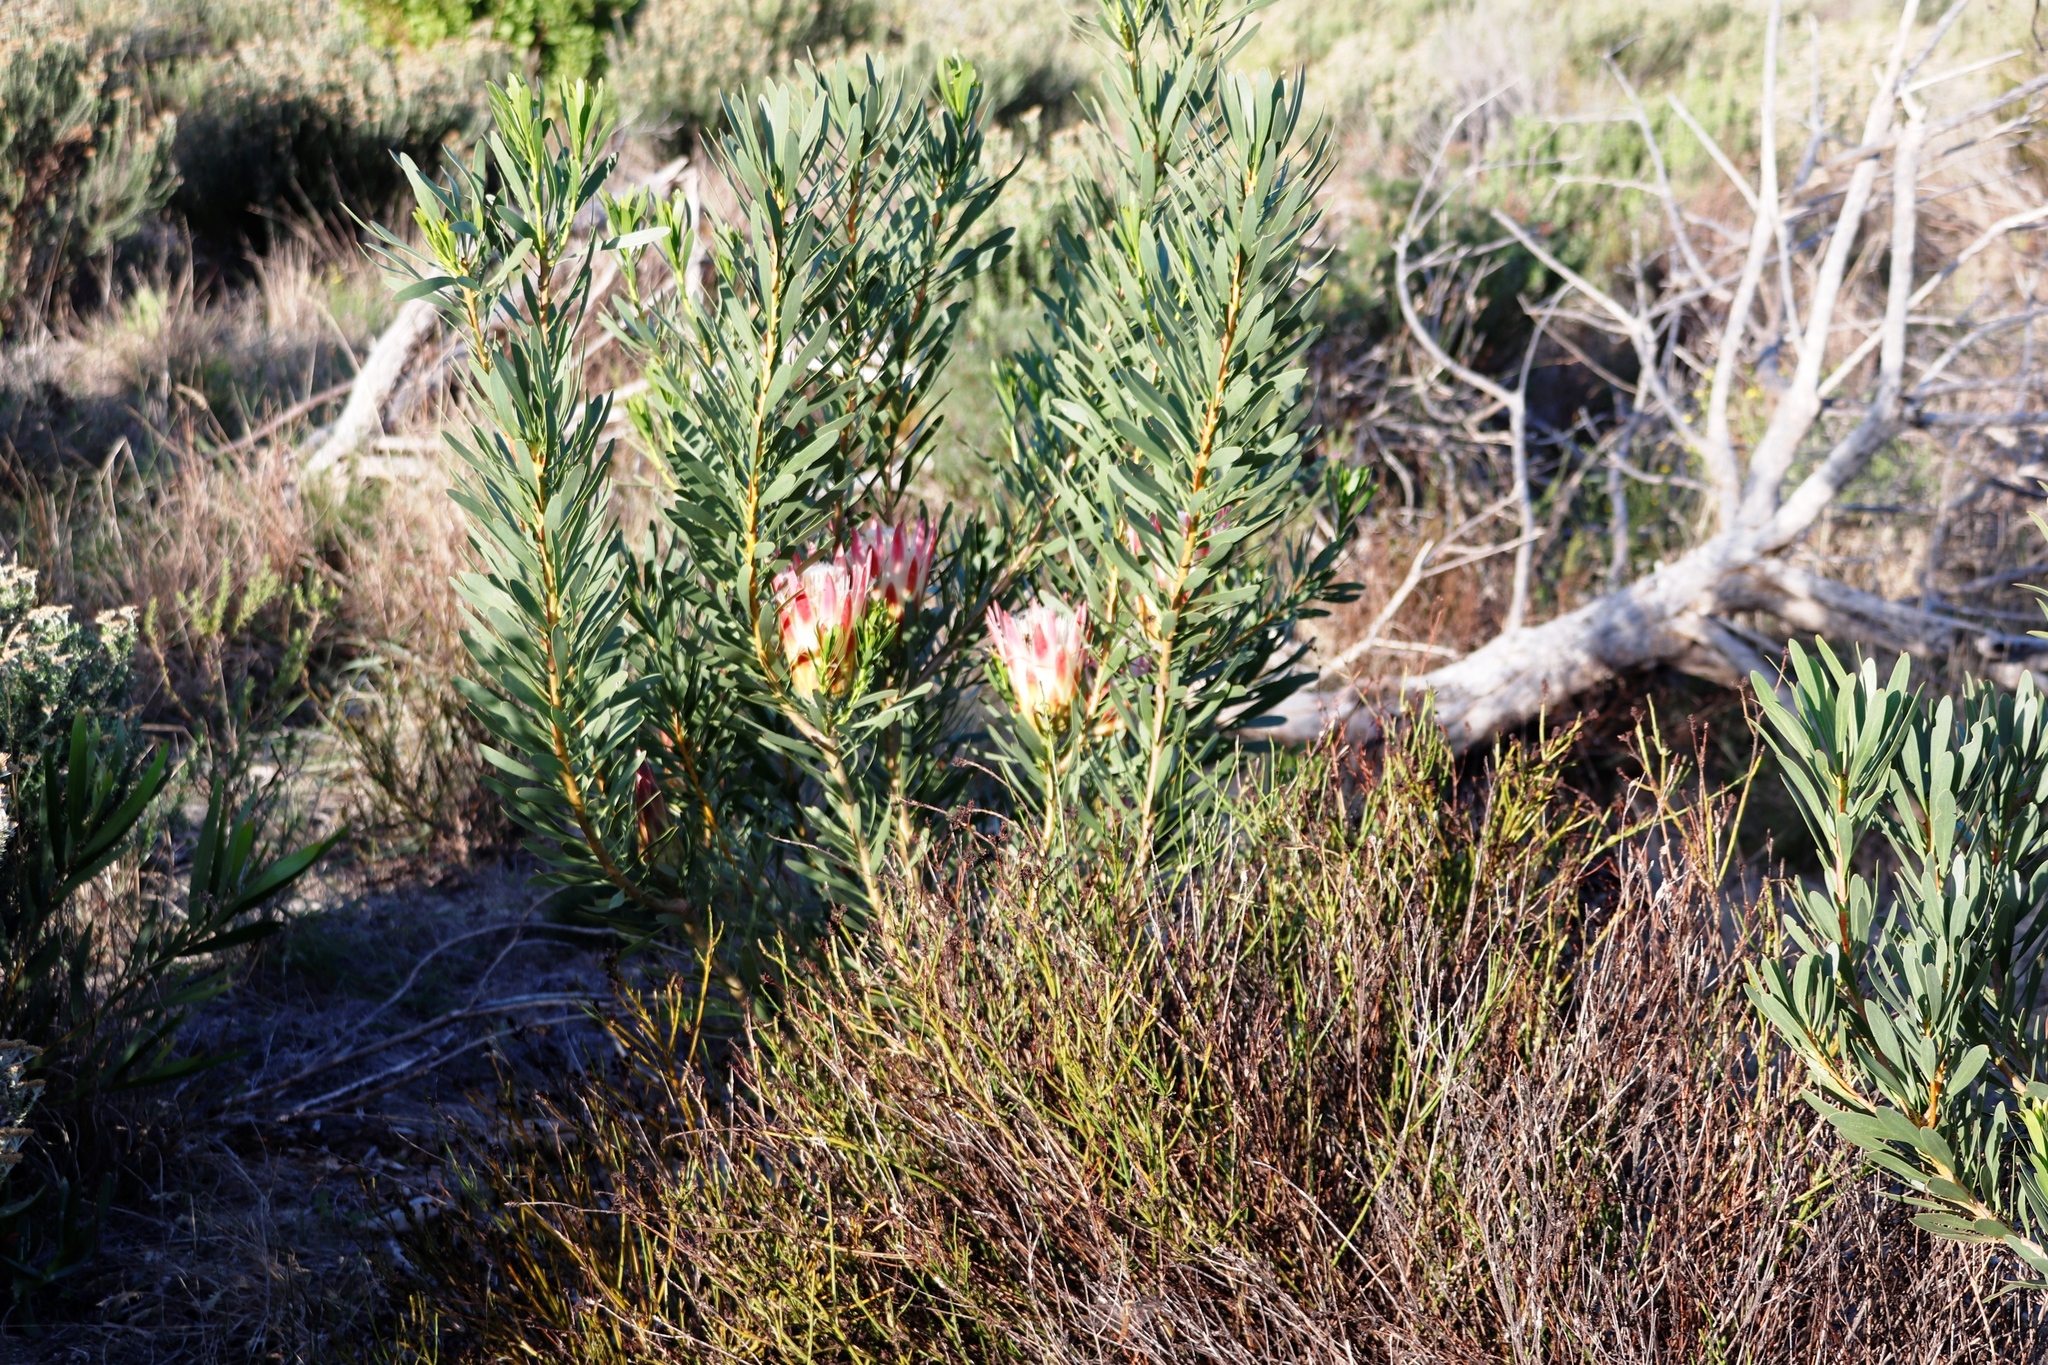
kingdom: Plantae
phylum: Tracheophyta
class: Magnoliopsida
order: Proteales
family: Proteaceae
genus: Protea
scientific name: Protea repens
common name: Sugarbush
